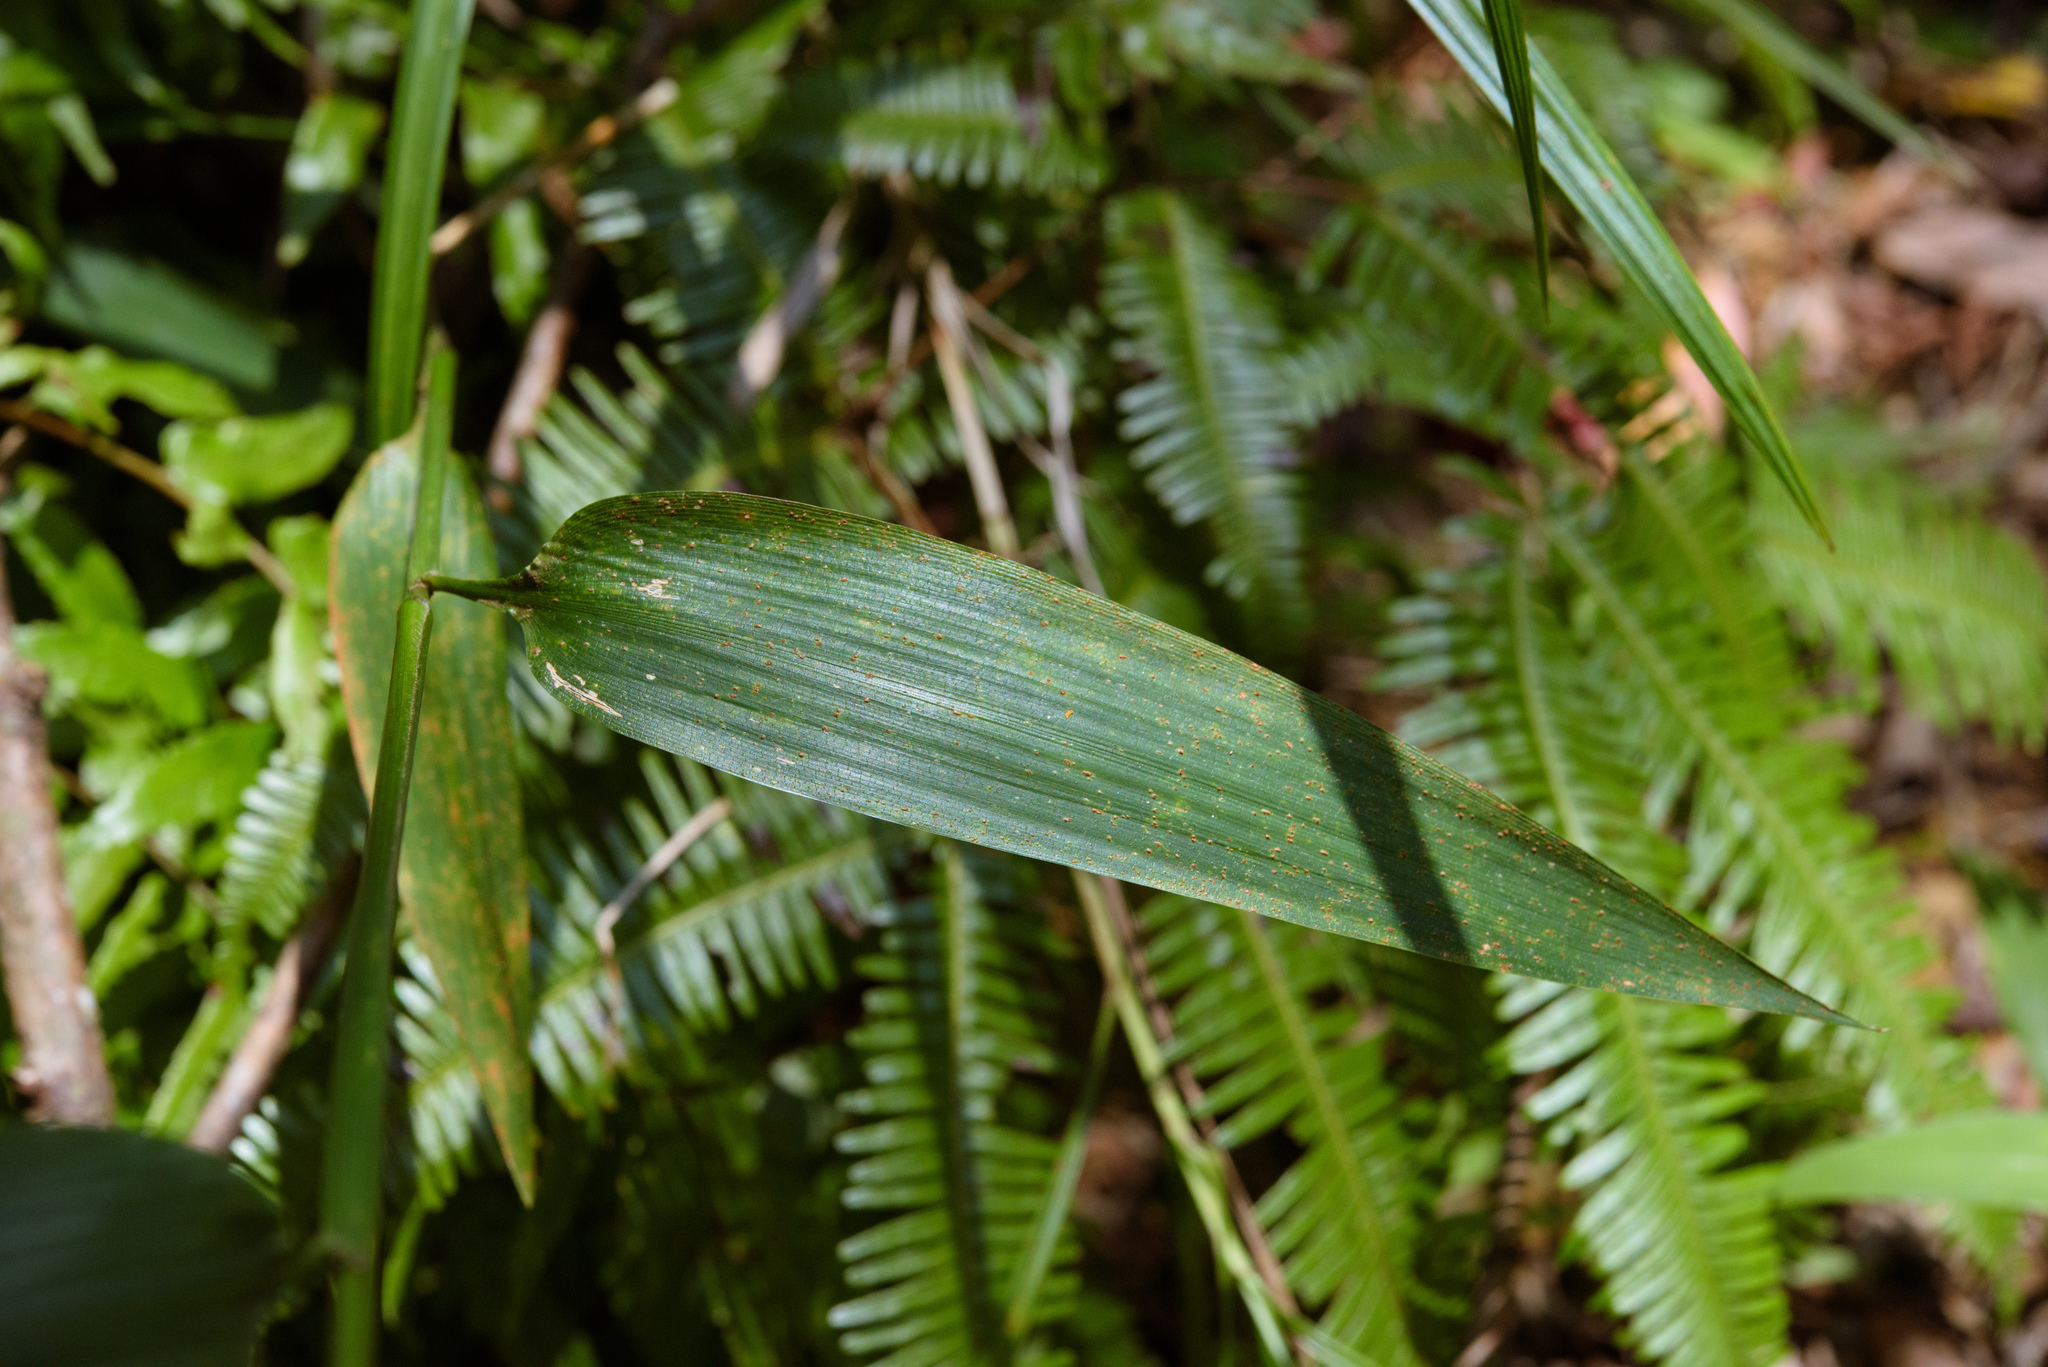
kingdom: Plantae
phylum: Tracheophyta
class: Liliopsida
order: Poales
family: Poaceae
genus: Lophatherum
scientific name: Lophatherum gracile
